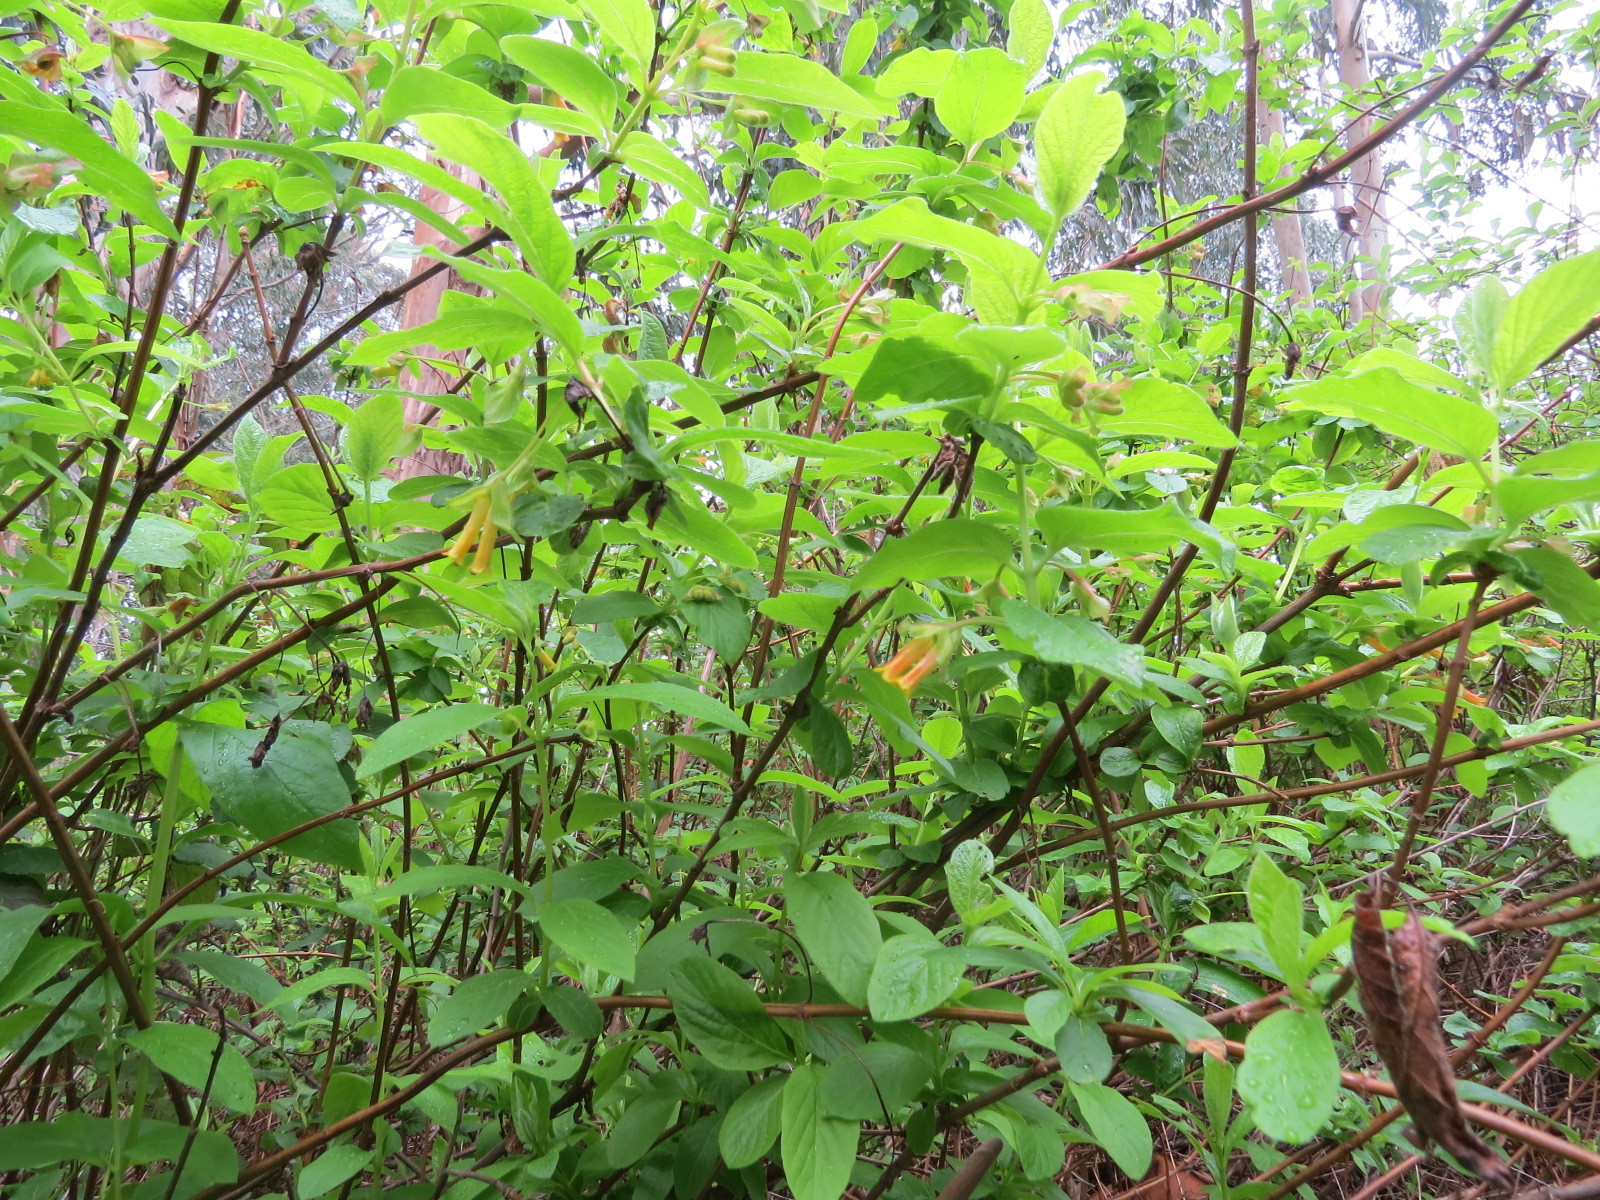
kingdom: Plantae
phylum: Tracheophyta
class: Magnoliopsida
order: Dipsacales
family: Caprifoliaceae
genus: Lonicera
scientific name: Lonicera involucrata
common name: Californian honeysuckle
